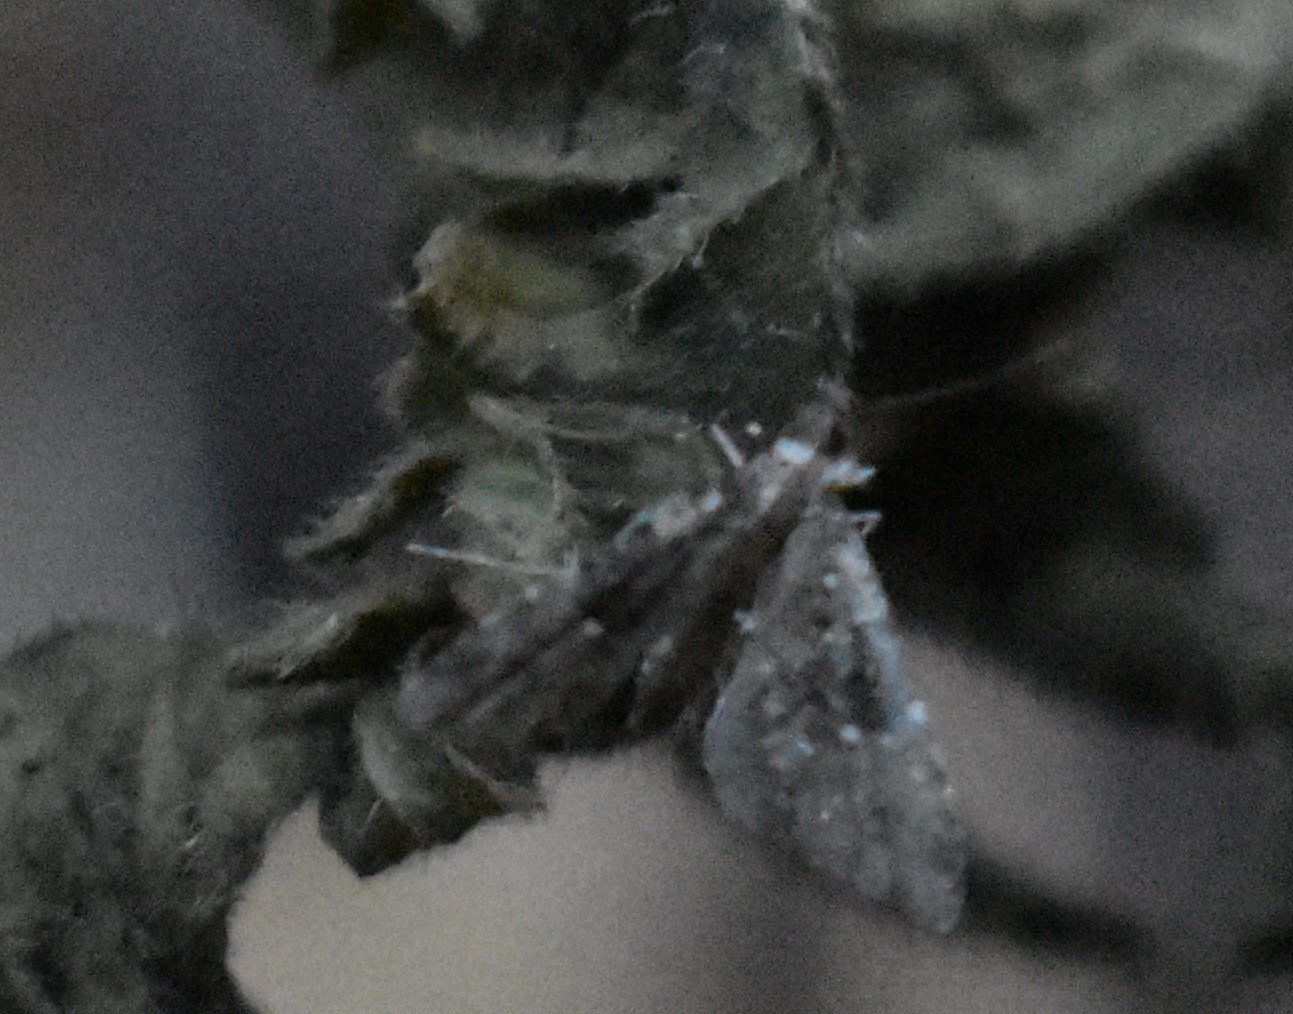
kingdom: Animalia
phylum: Arthropoda
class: Insecta
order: Lepidoptera
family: Erebidae
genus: Pseudoschrankia
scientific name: Pseudoschrankia brevipalpis
